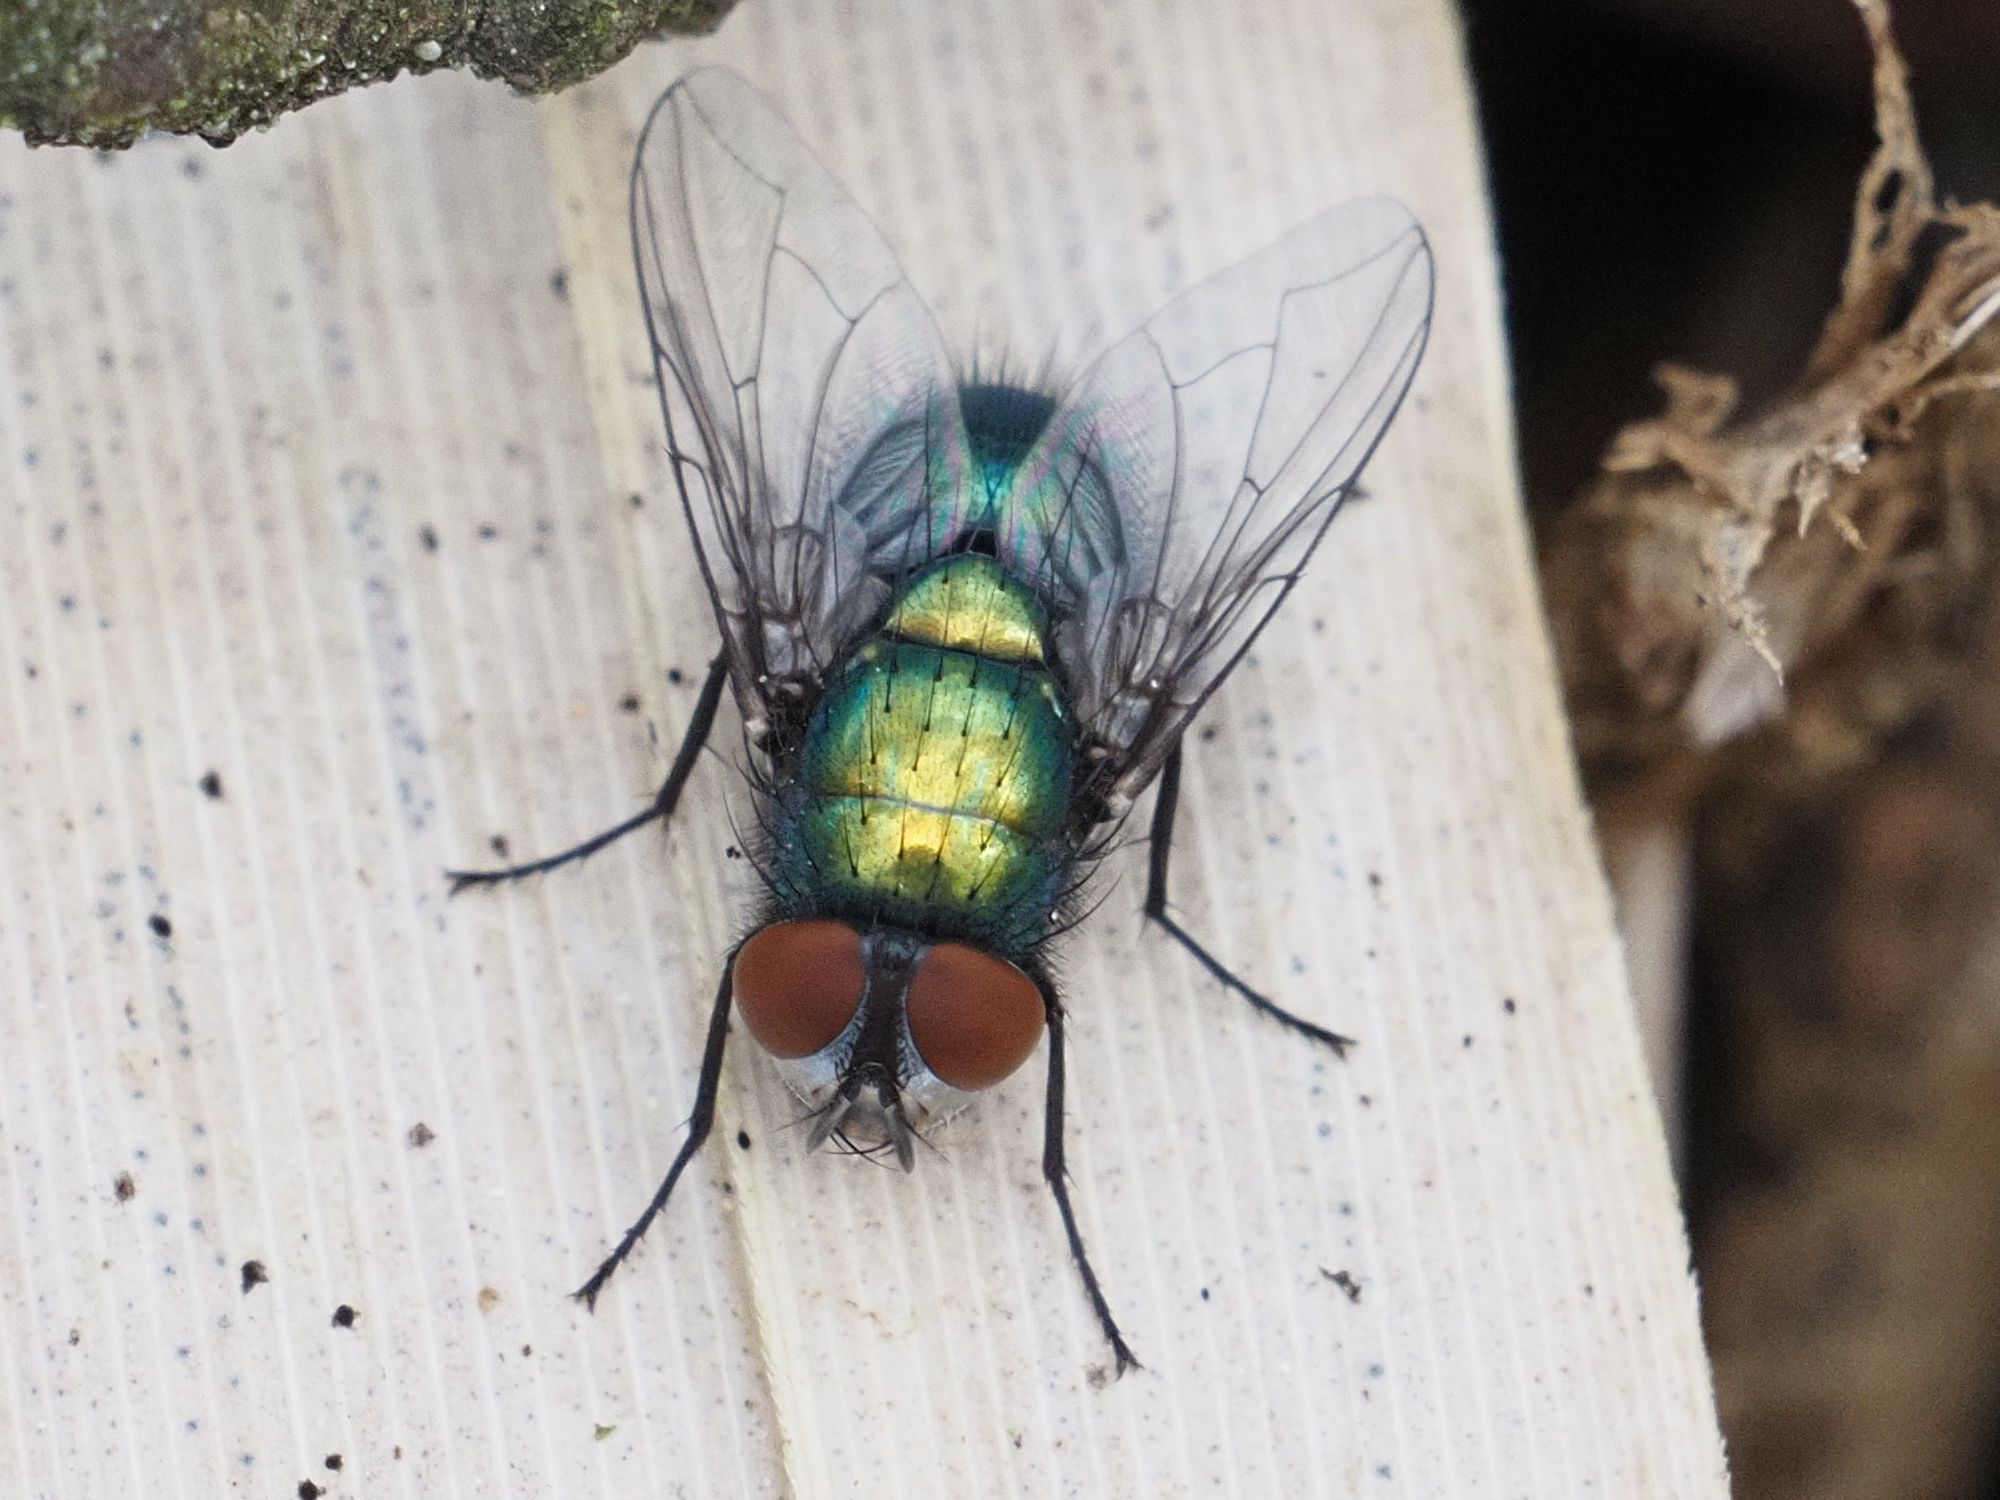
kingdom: Animalia
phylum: Arthropoda
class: Insecta
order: Diptera
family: Calliphoridae
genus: Lucilia
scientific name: Lucilia sericata
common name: Blow fly
